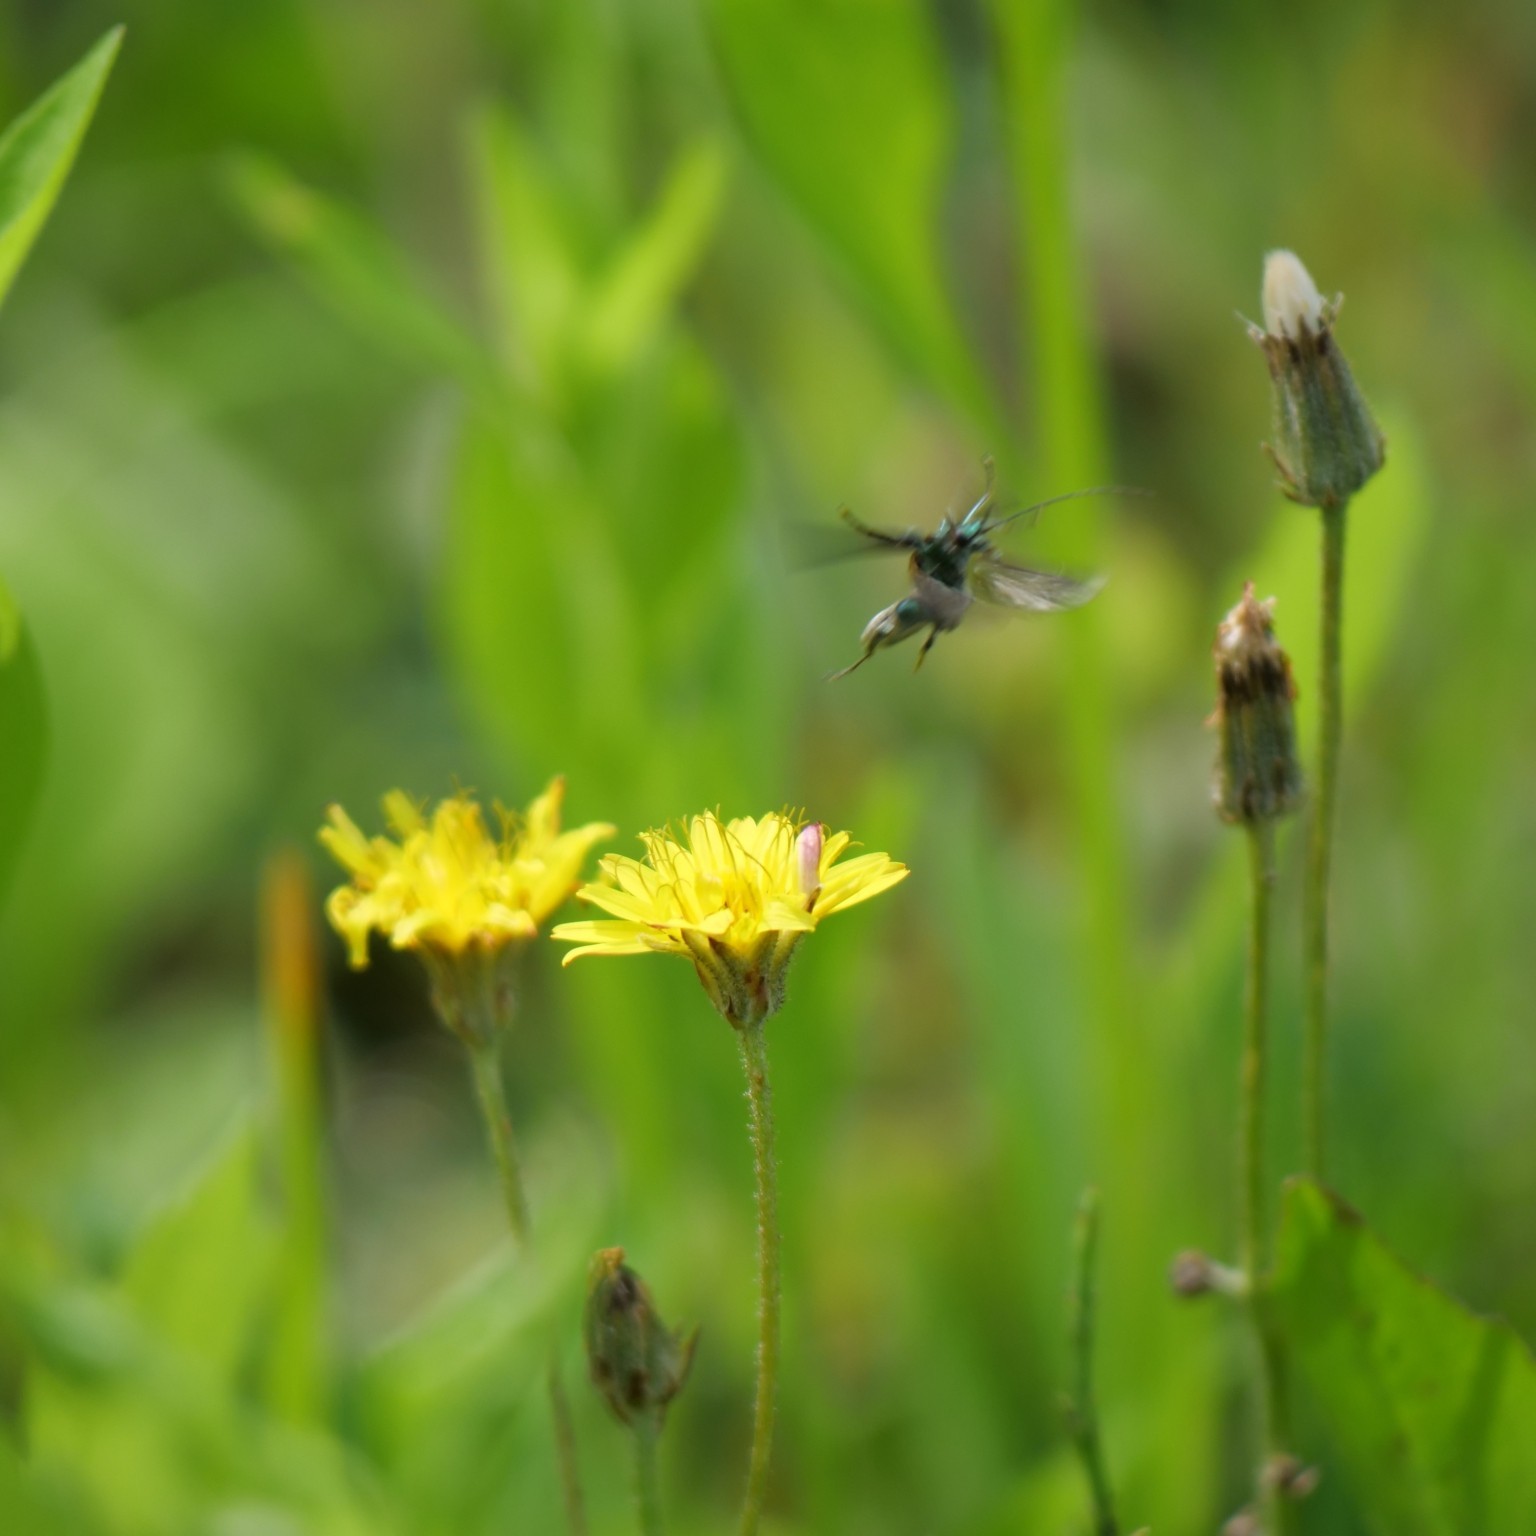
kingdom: Animalia
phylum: Arthropoda
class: Insecta
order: Coleoptera
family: Oedemeridae
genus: Oedemera
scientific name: Oedemera nobilis
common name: Swollen-thighed beetle
